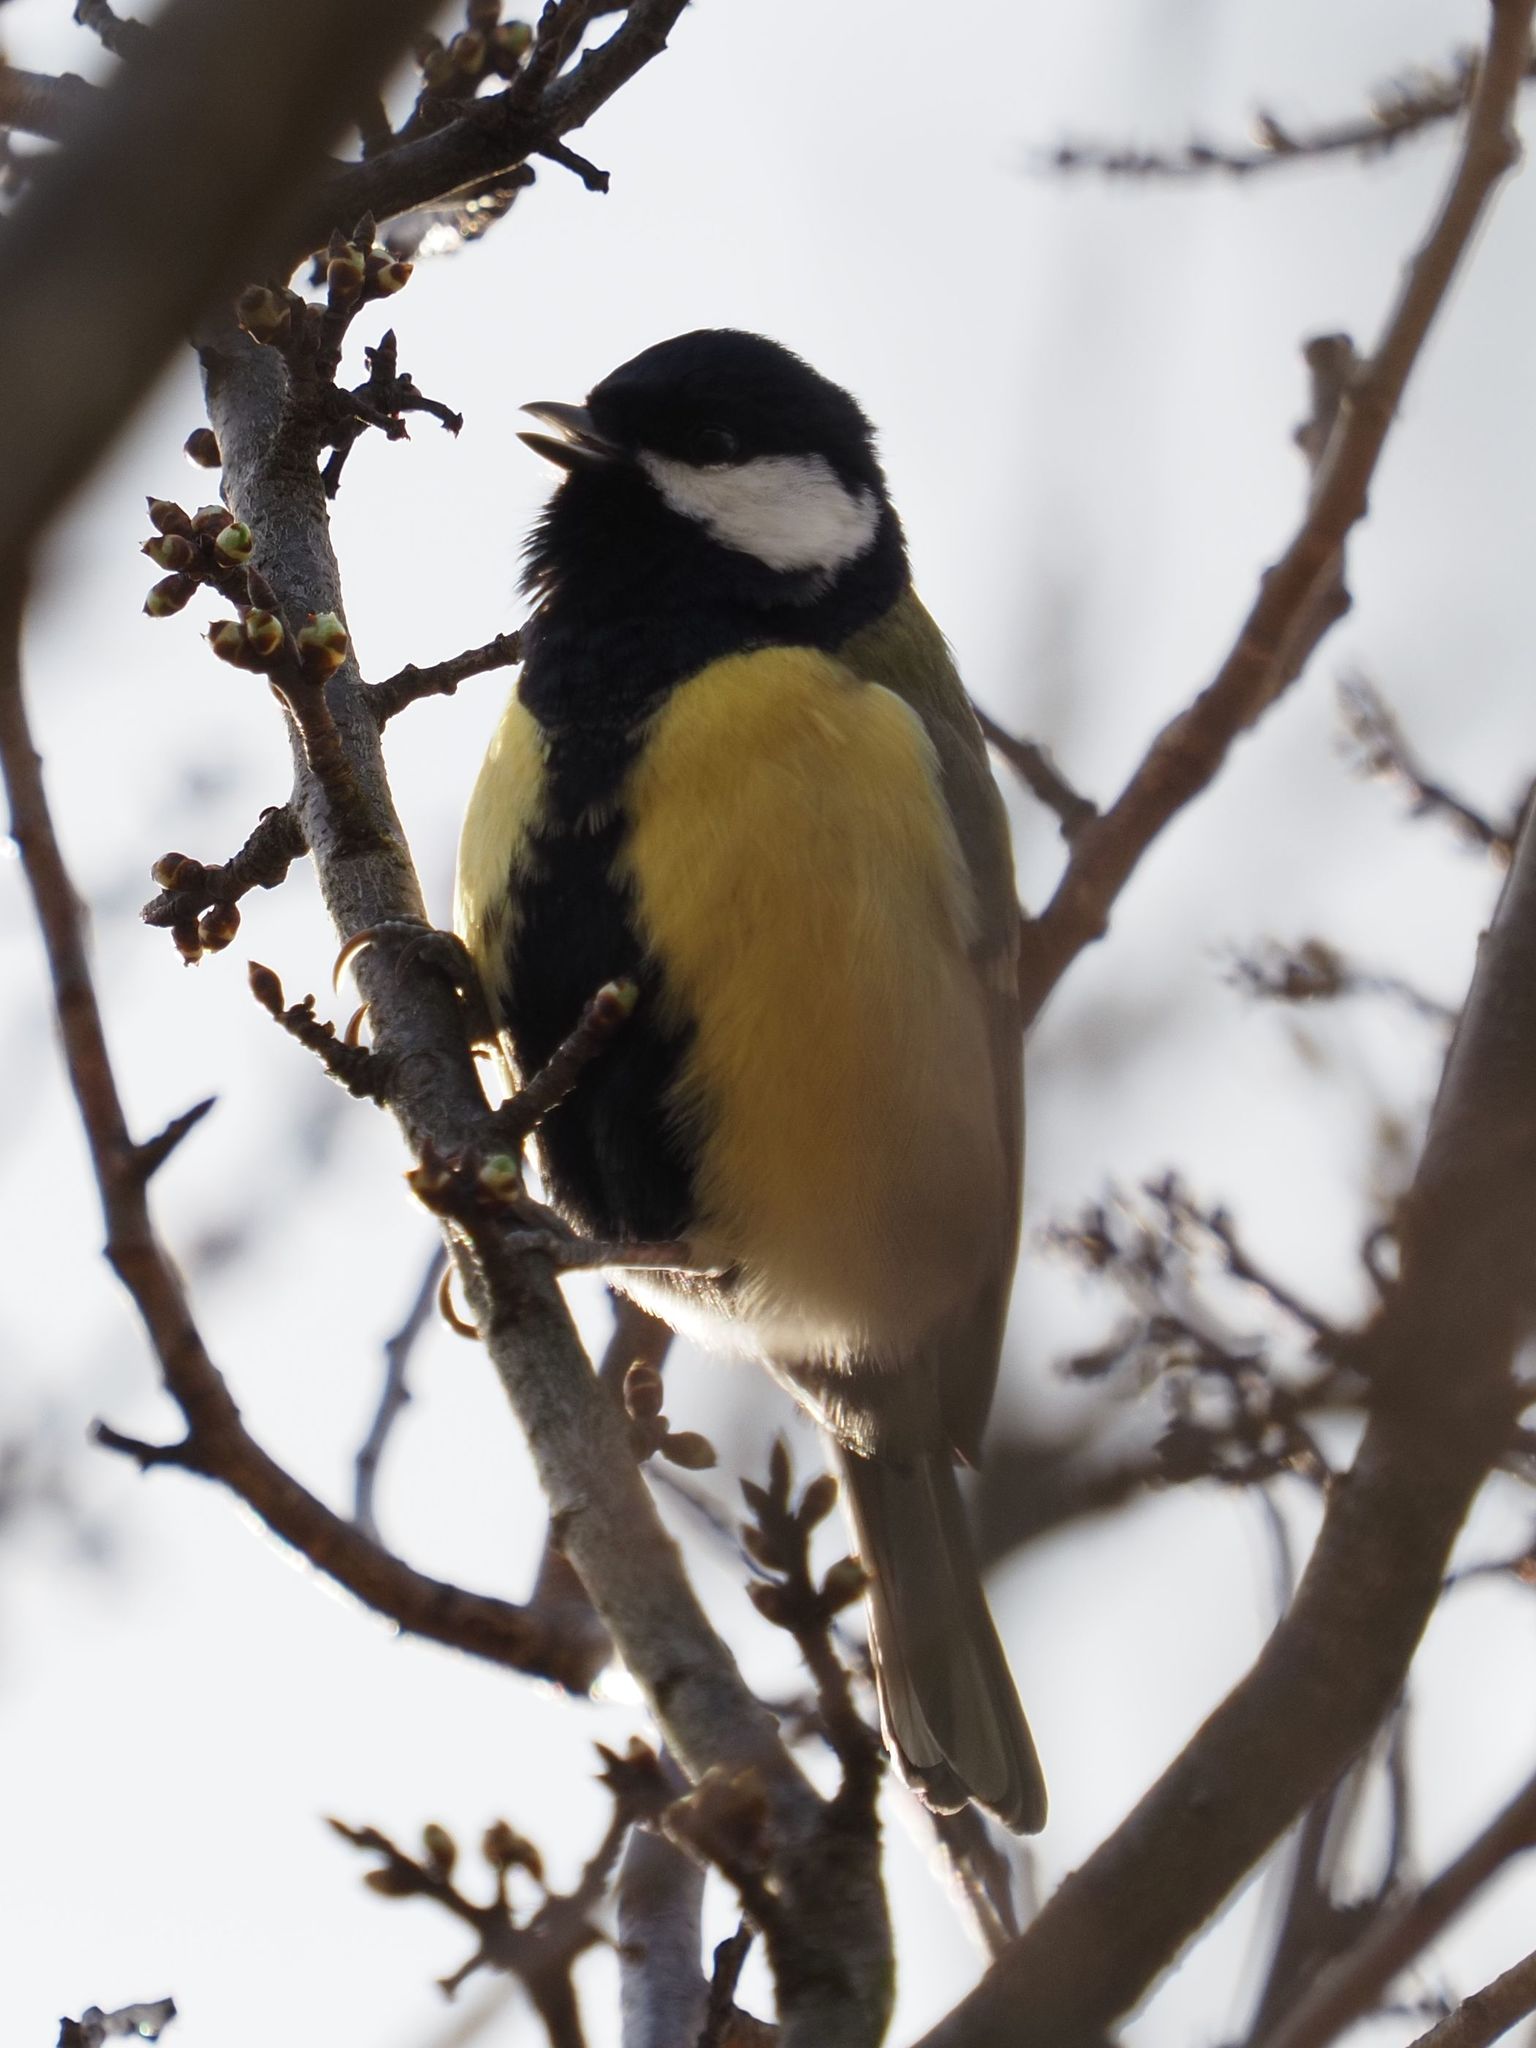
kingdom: Animalia
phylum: Chordata
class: Aves
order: Passeriformes
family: Paridae
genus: Parus
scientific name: Parus major
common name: Great tit
